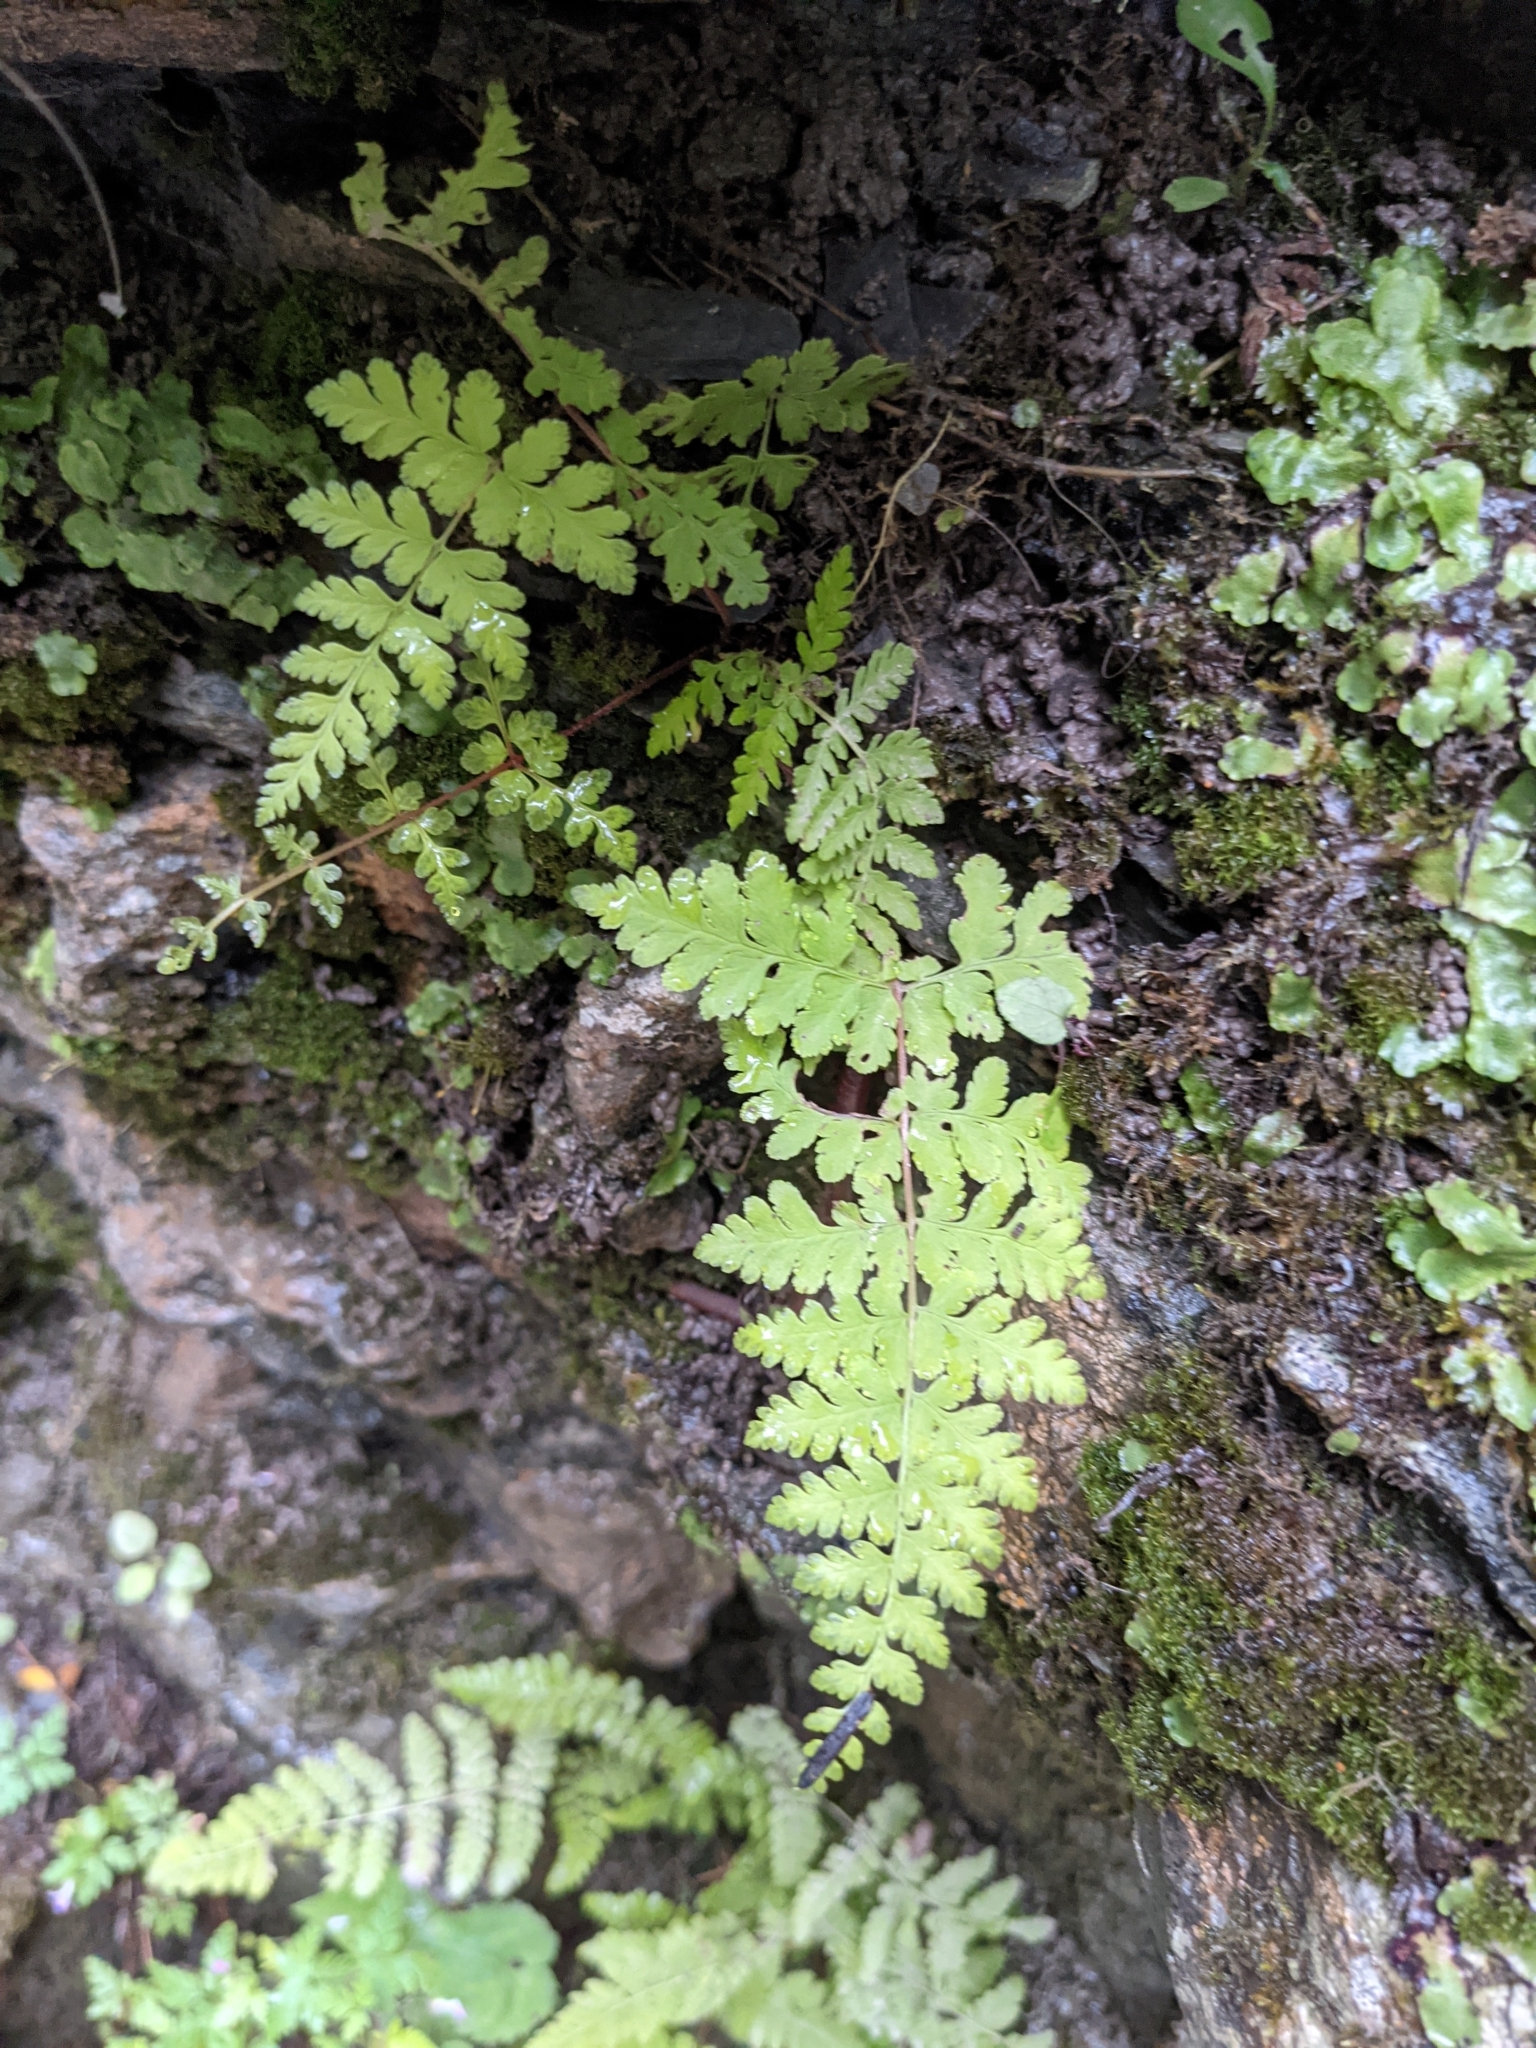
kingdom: Plantae
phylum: Tracheophyta
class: Polypodiopsida
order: Polypodiales
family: Cystopteridaceae
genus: Cystopteris
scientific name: Cystopteris bulbifera
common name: Bulblet bladder fern
